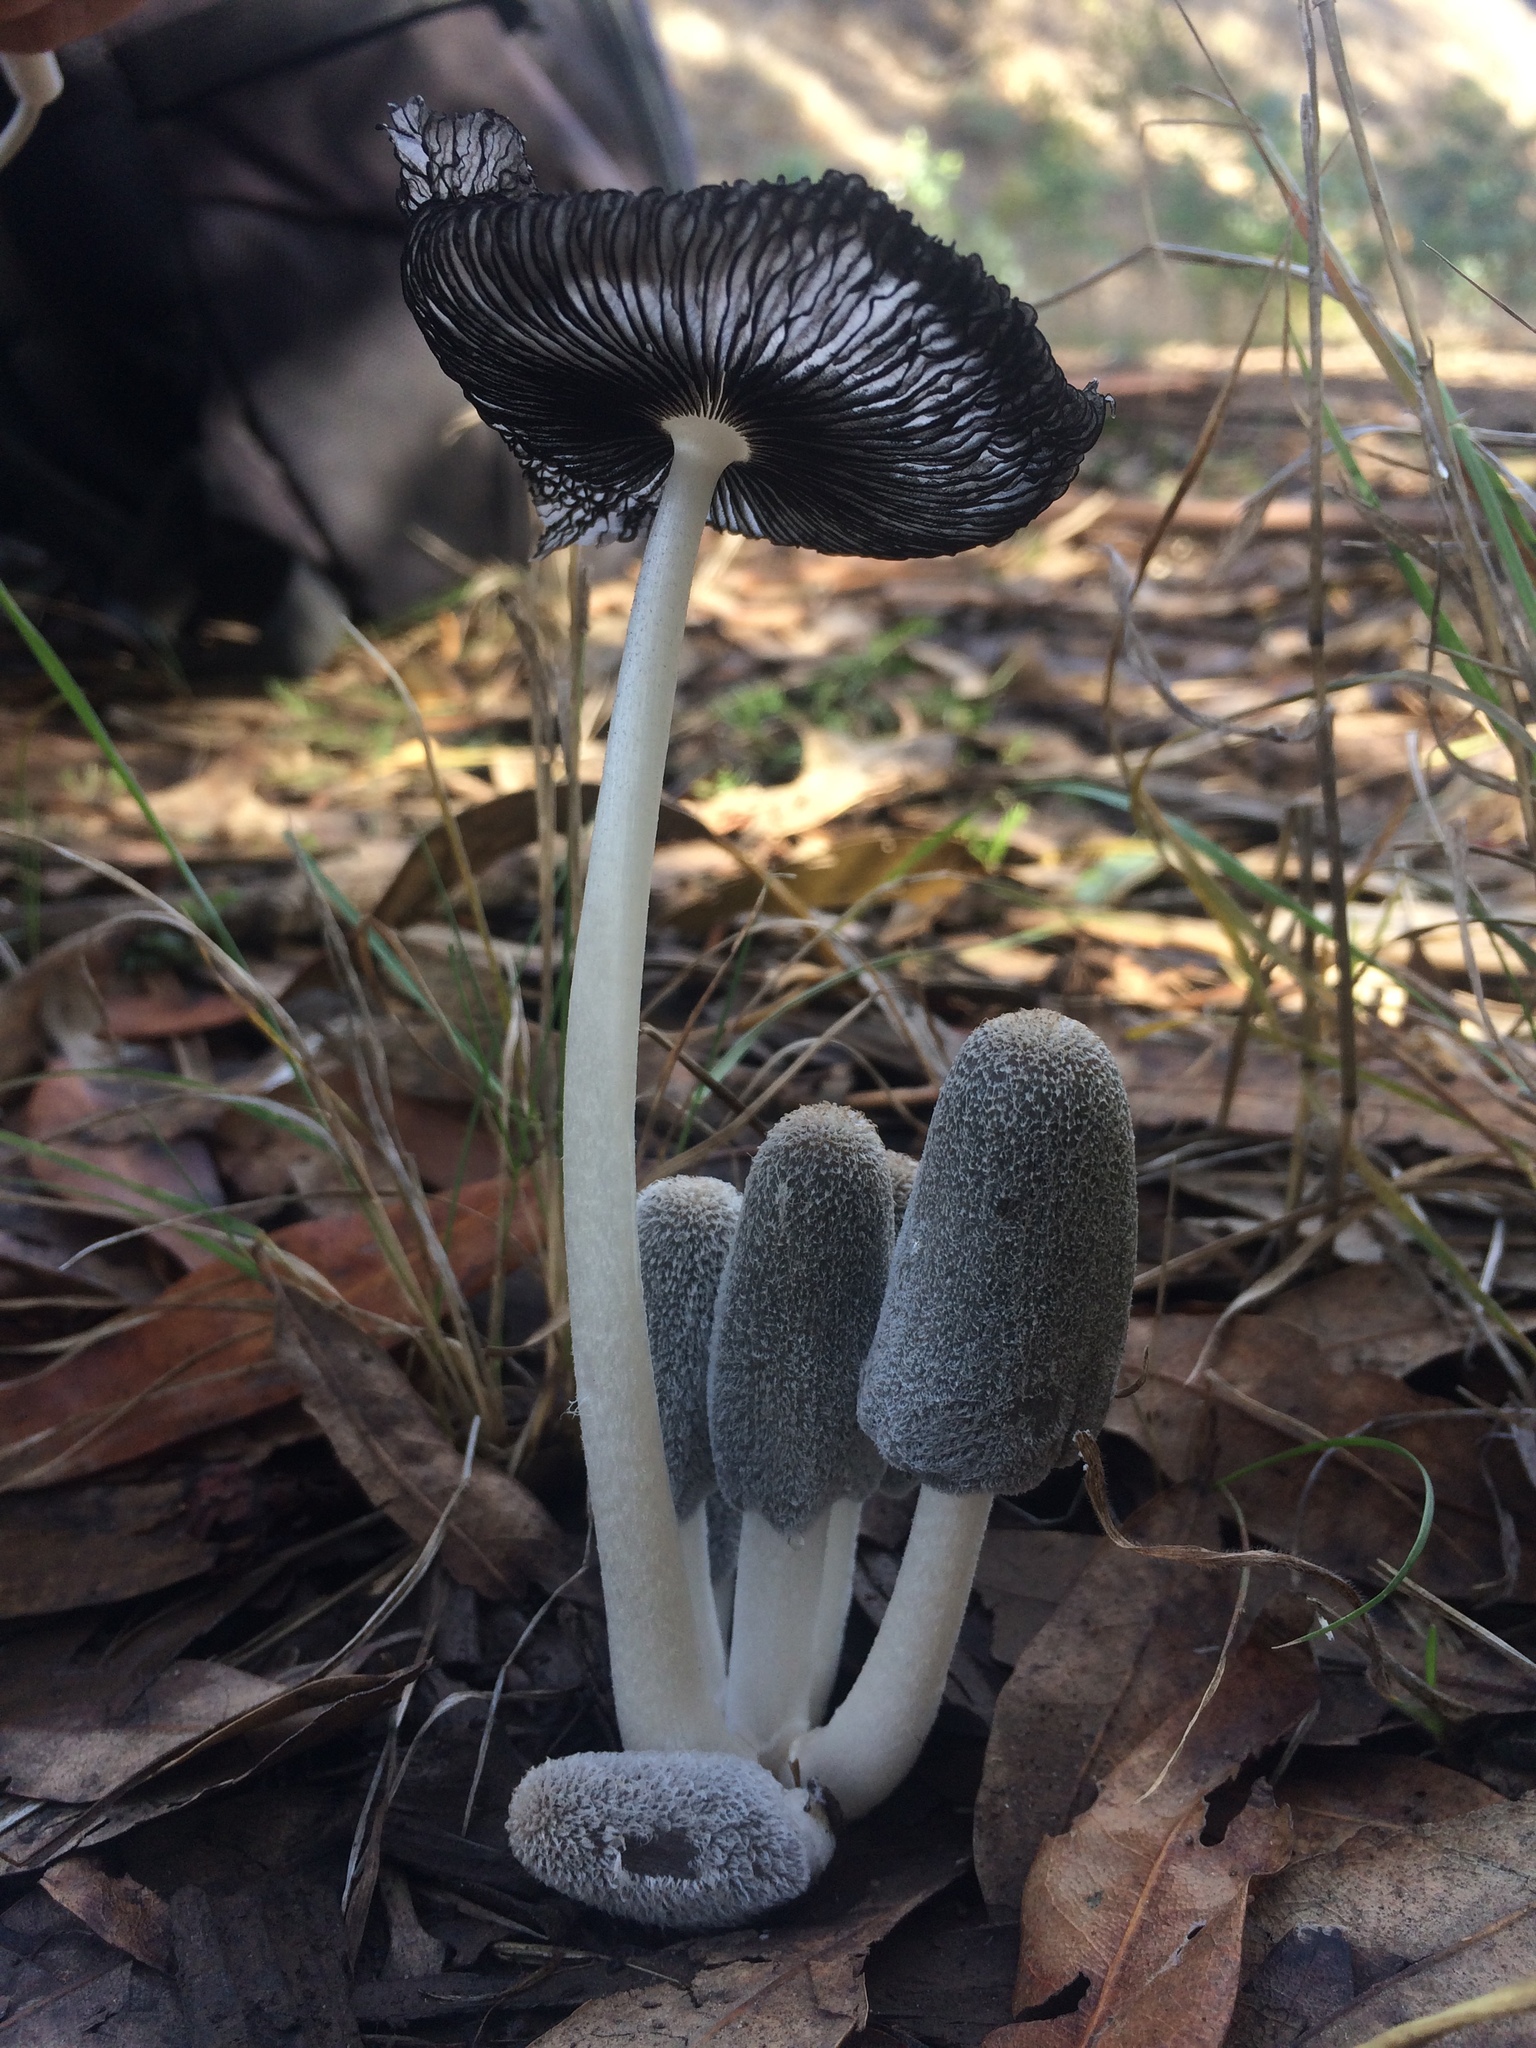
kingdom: Fungi
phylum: Basidiomycota
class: Agaricomycetes
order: Agaricales
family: Psathyrellaceae
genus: Coprinopsis
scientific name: Coprinopsis lagopus
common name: Hare'sfoot inkcap
